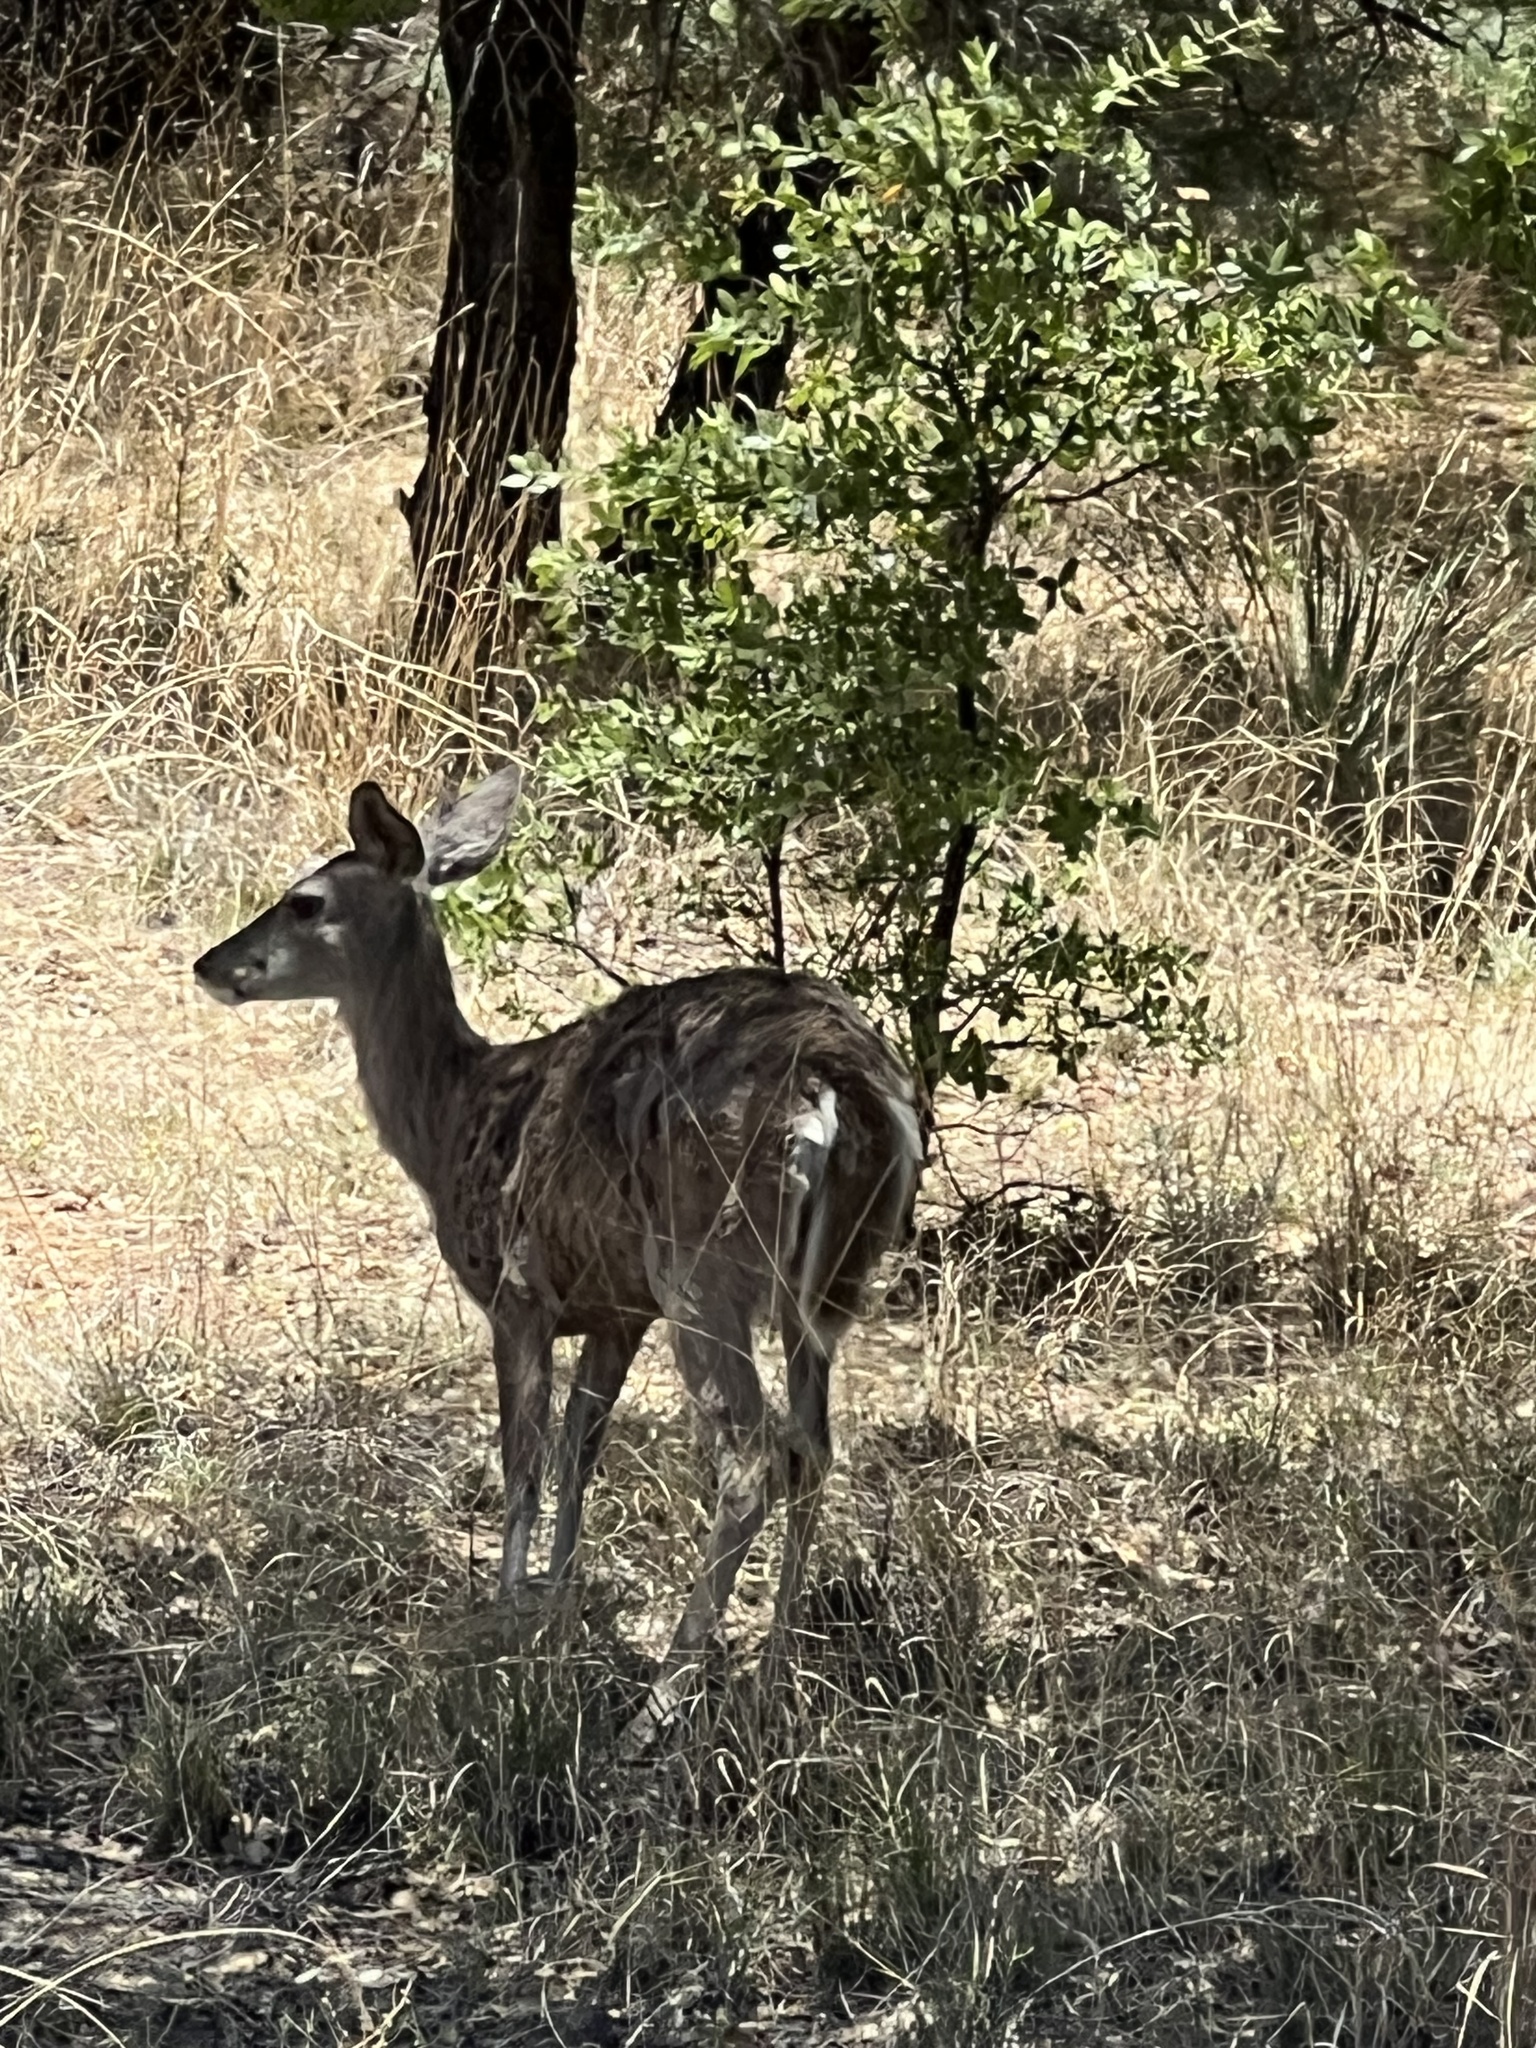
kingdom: Animalia
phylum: Chordata
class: Mammalia
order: Artiodactyla
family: Cervidae
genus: Odocoileus
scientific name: Odocoileus virginianus
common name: White-tailed deer
